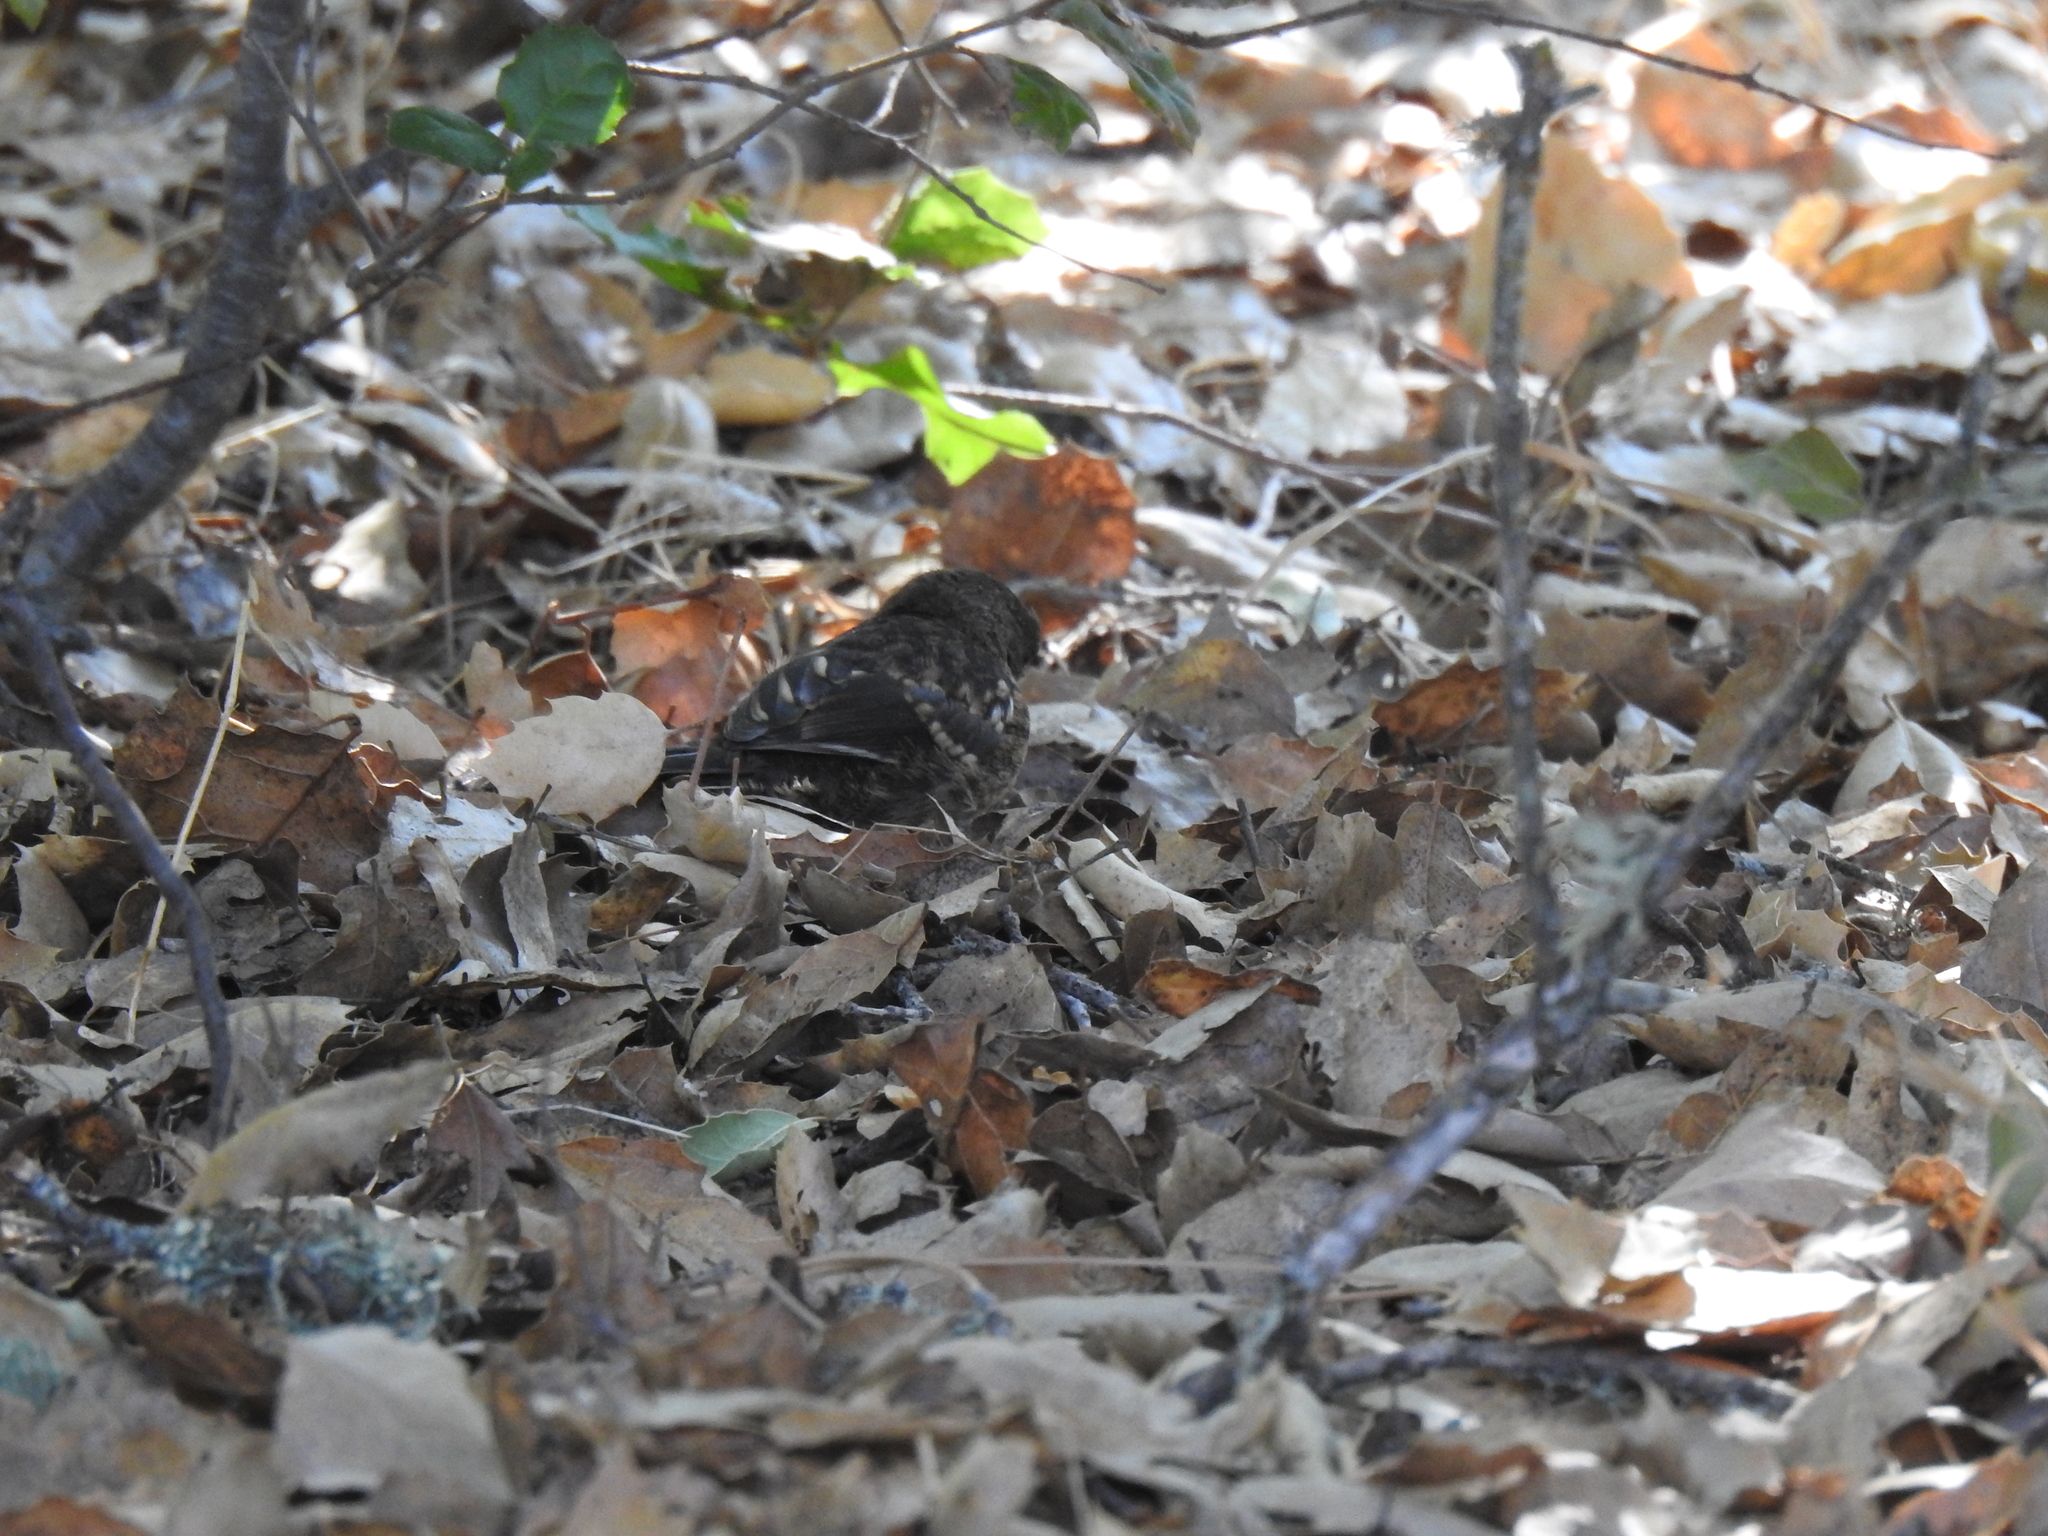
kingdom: Animalia
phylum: Chordata
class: Aves
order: Passeriformes
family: Passerellidae
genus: Pipilo
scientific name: Pipilo maculatus
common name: Spotted towhee
